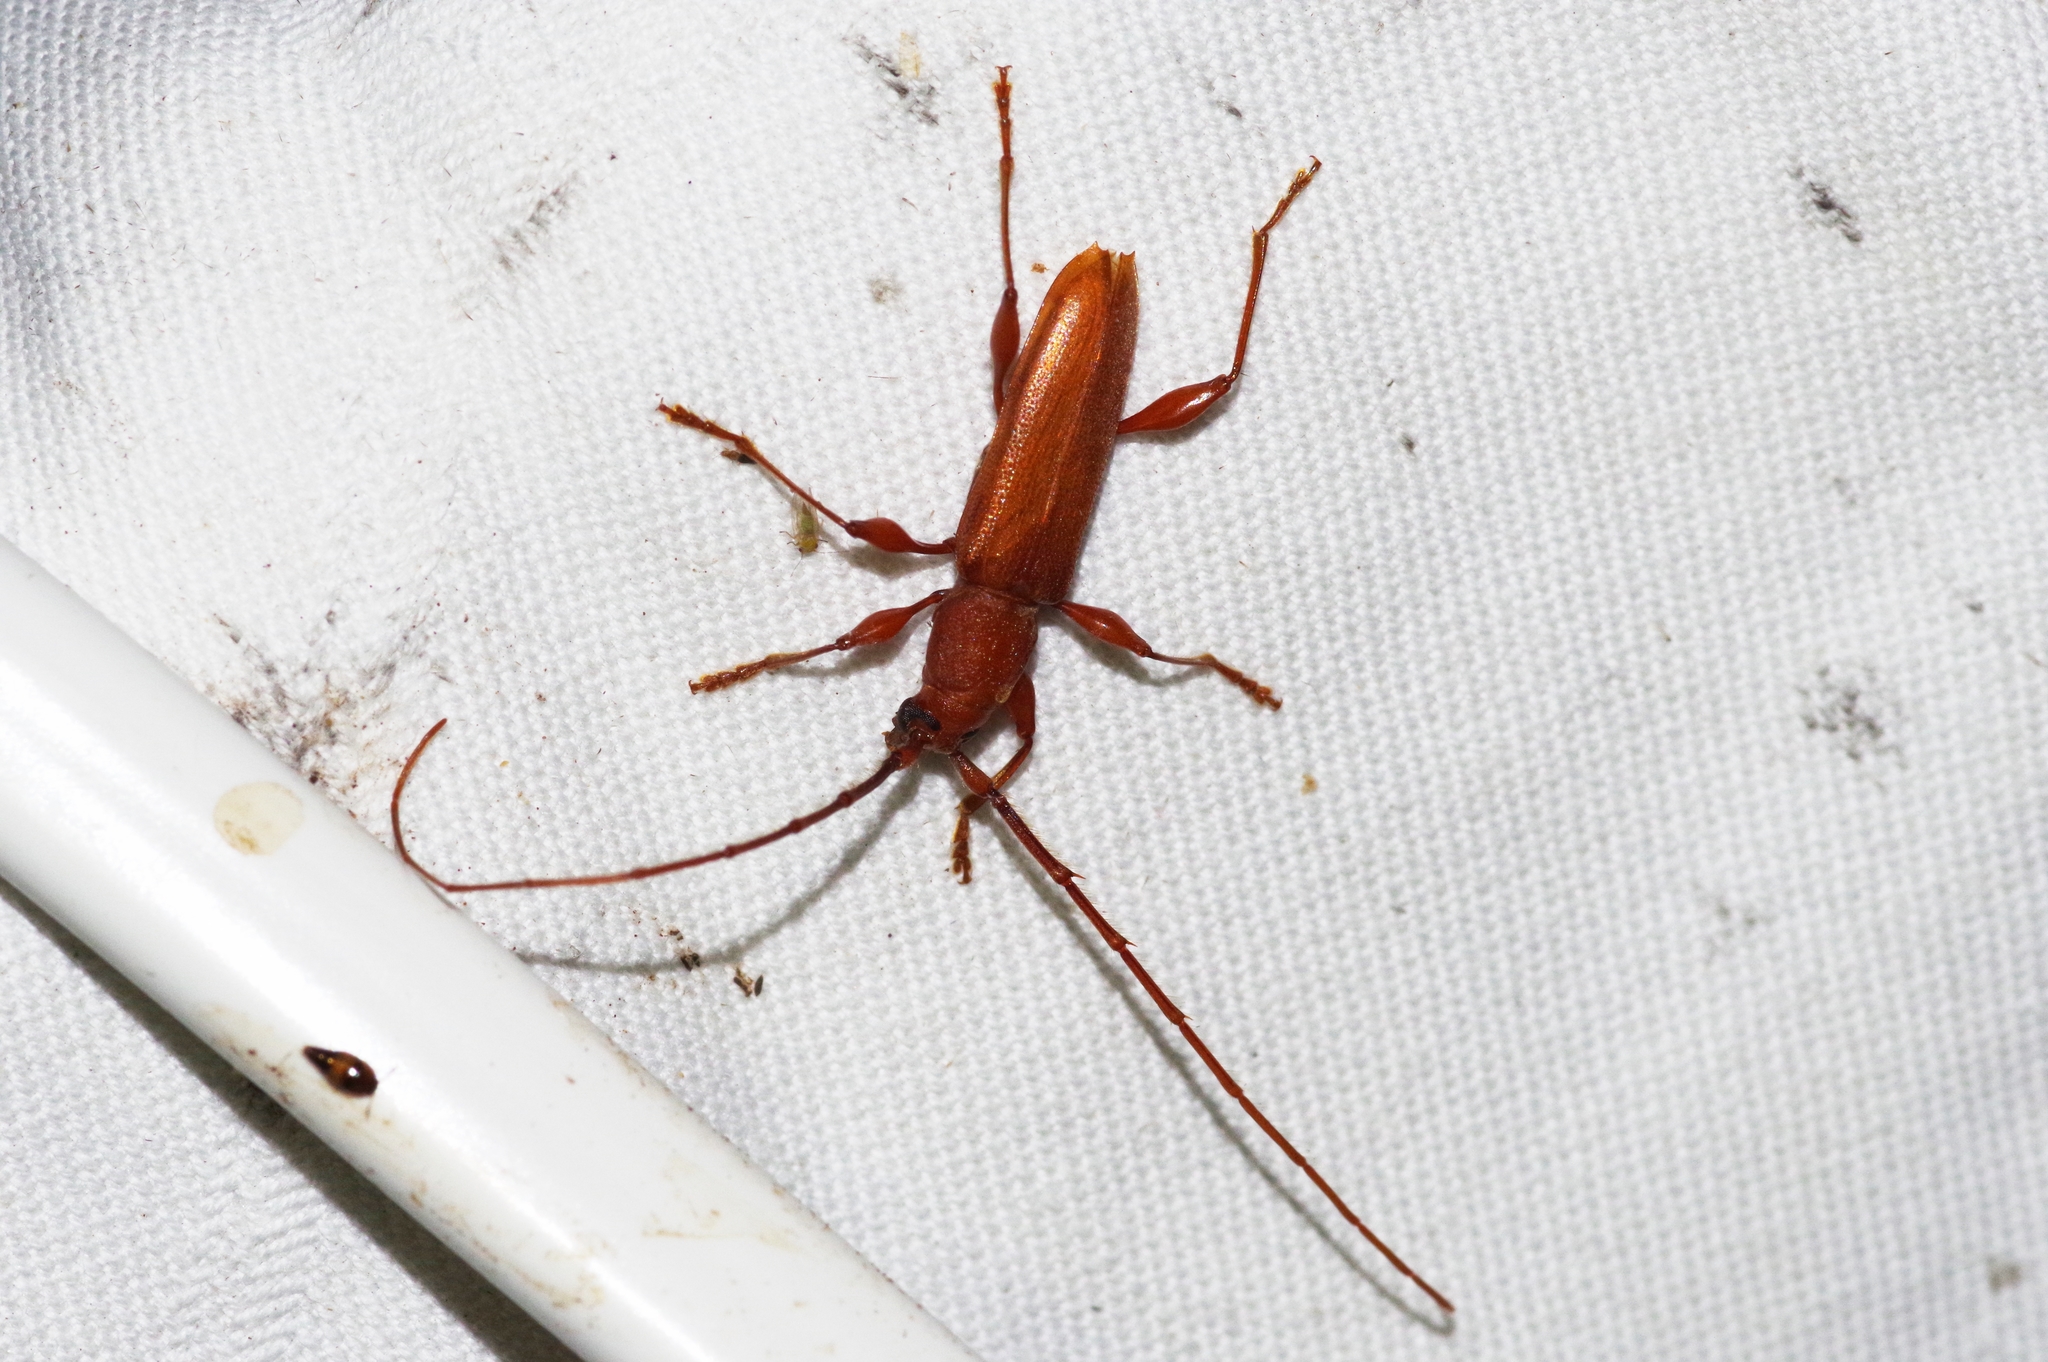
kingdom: Animalia
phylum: Arthropoda
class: Insecta
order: Coleoptera
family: Cerambycidae
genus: Nysina
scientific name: Nysina insularis
